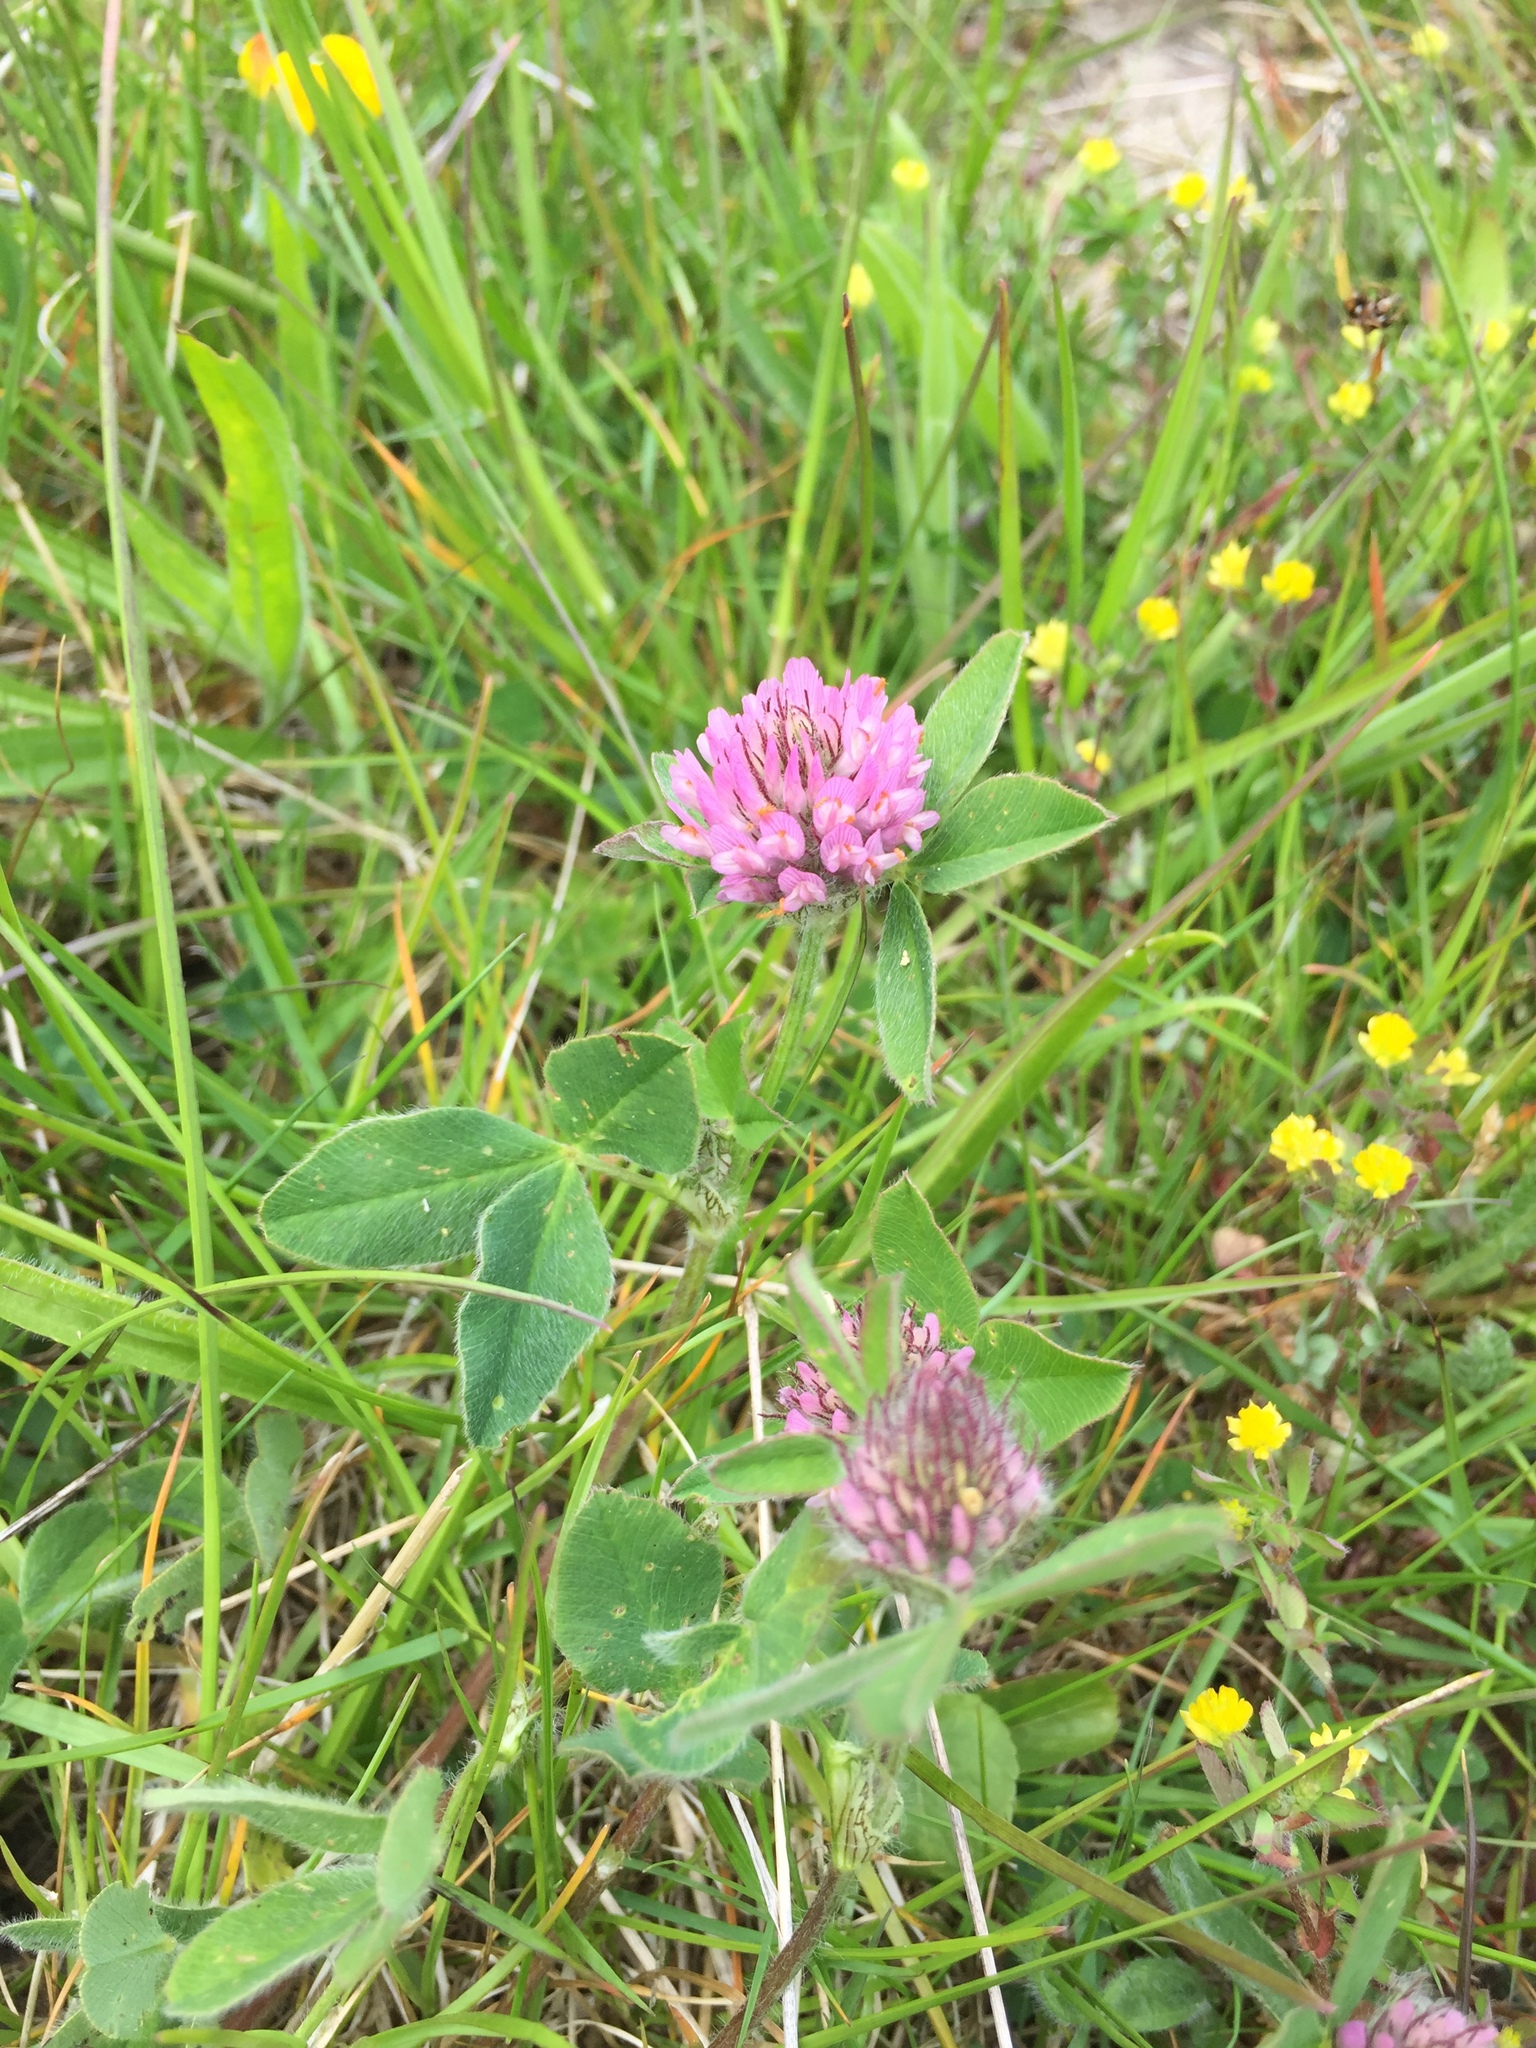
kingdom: Plantae
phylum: Tracheophyta
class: Magnoliopsida
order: Fabales
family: Fabaceae
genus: Trifolium
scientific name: Trifolium pratense
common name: Red clover
